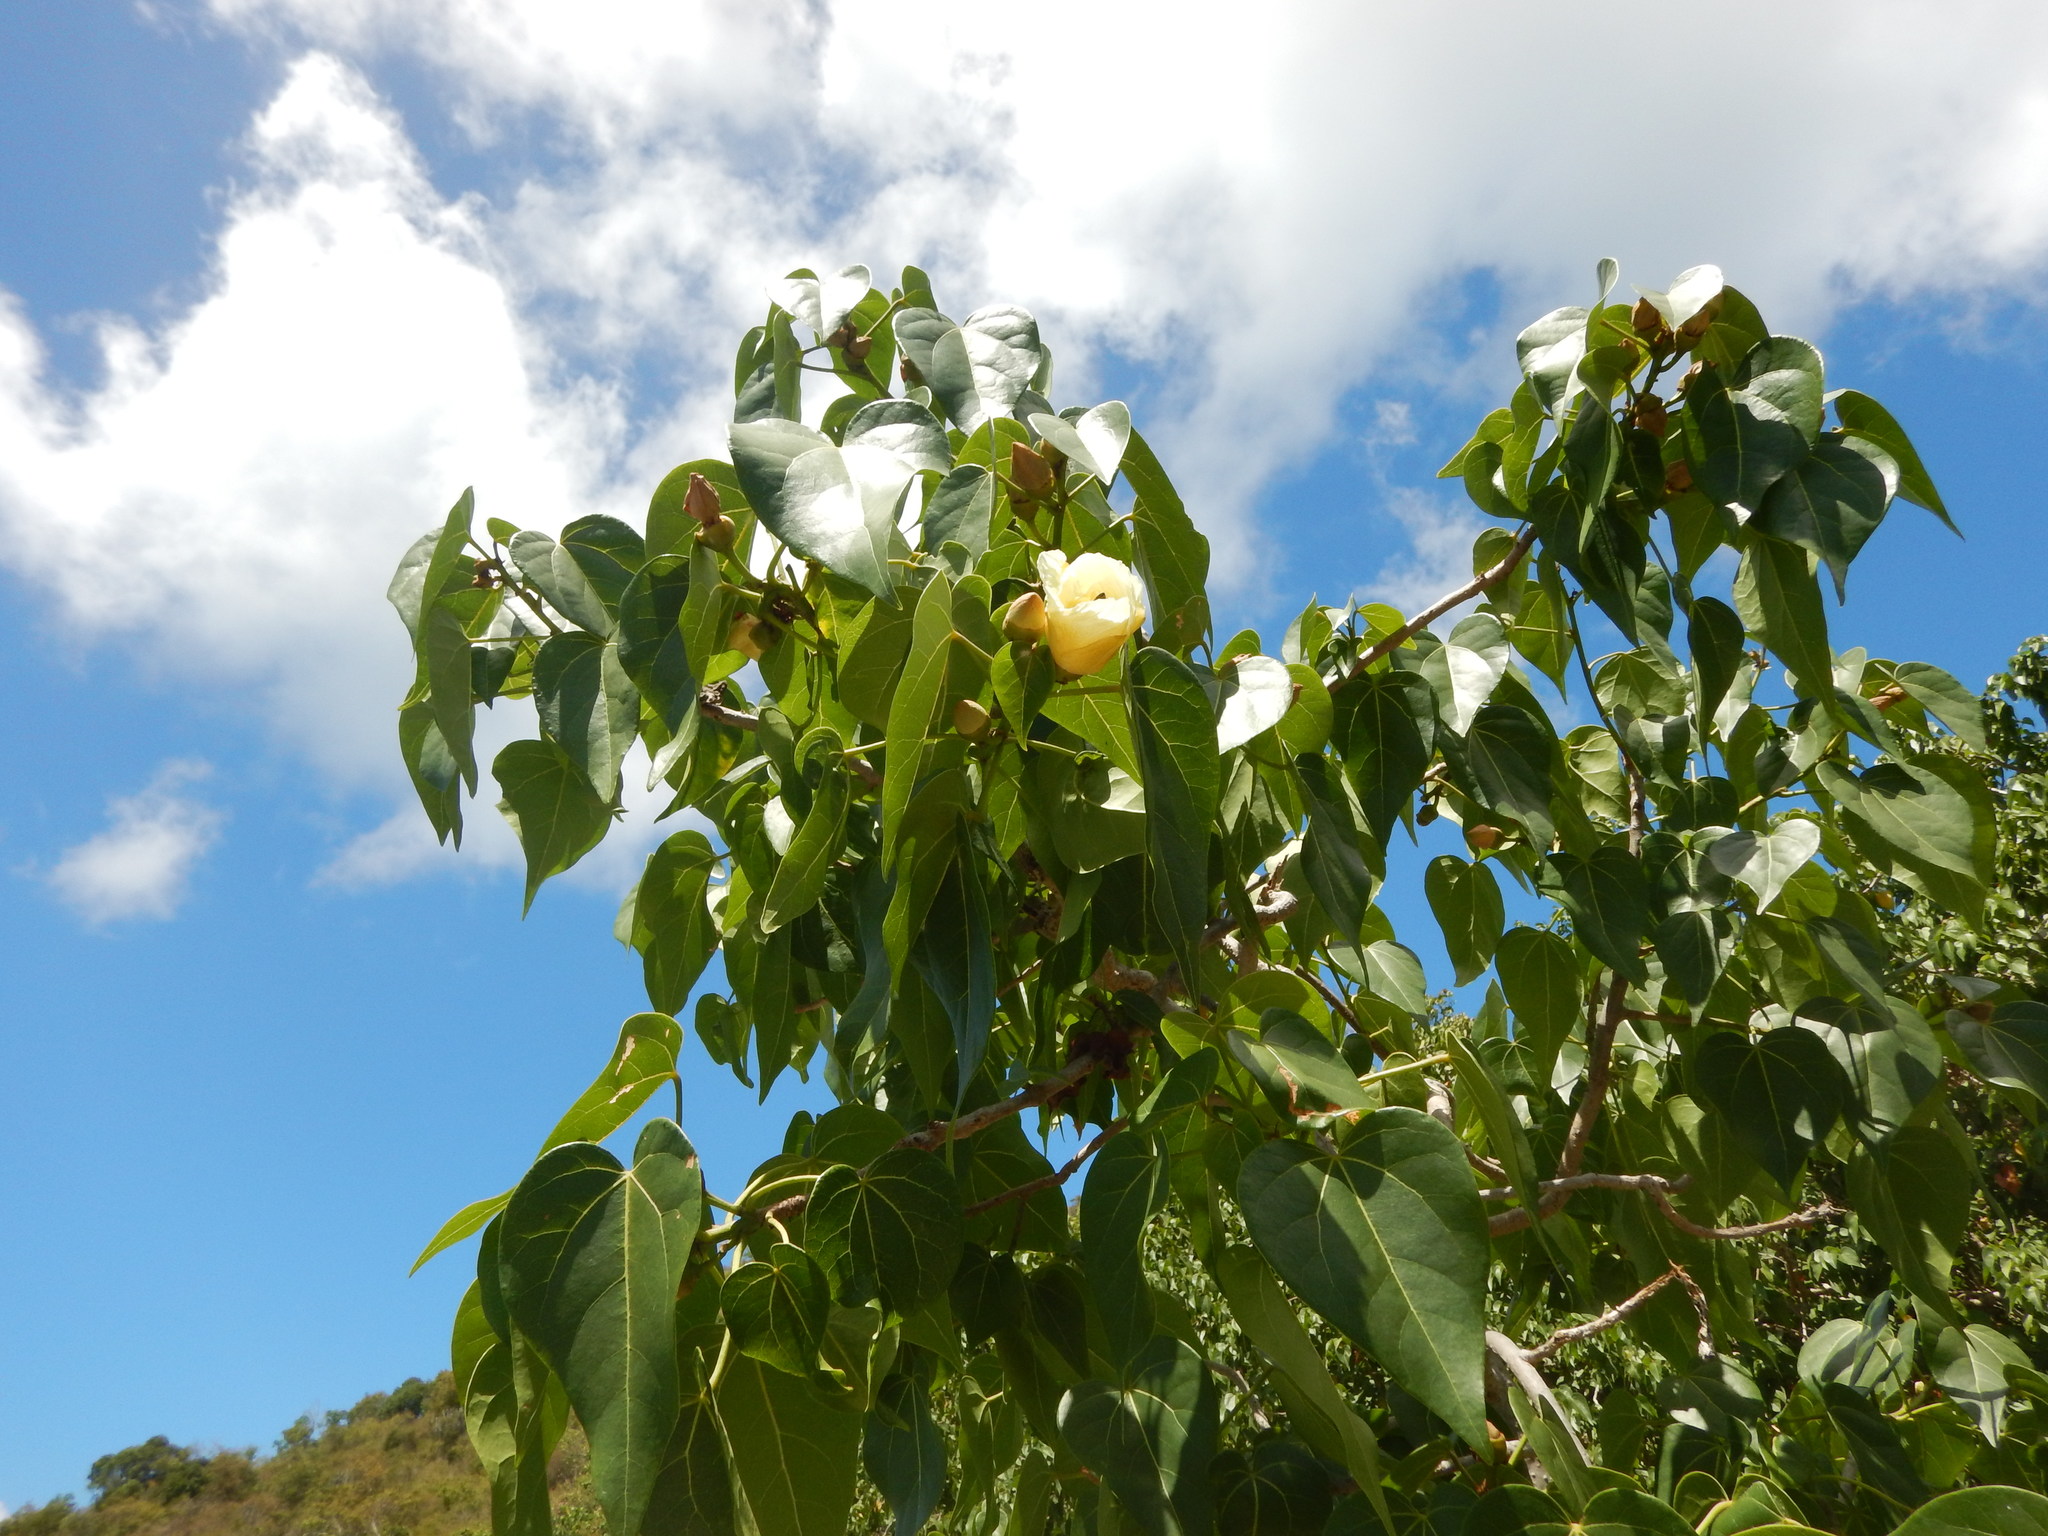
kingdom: Plantae
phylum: Tracheophyta
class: Magnoliopsida
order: Malvales
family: Malvaceae
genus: Thespesia
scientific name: Thespesia populnea
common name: Seaside mahoe
